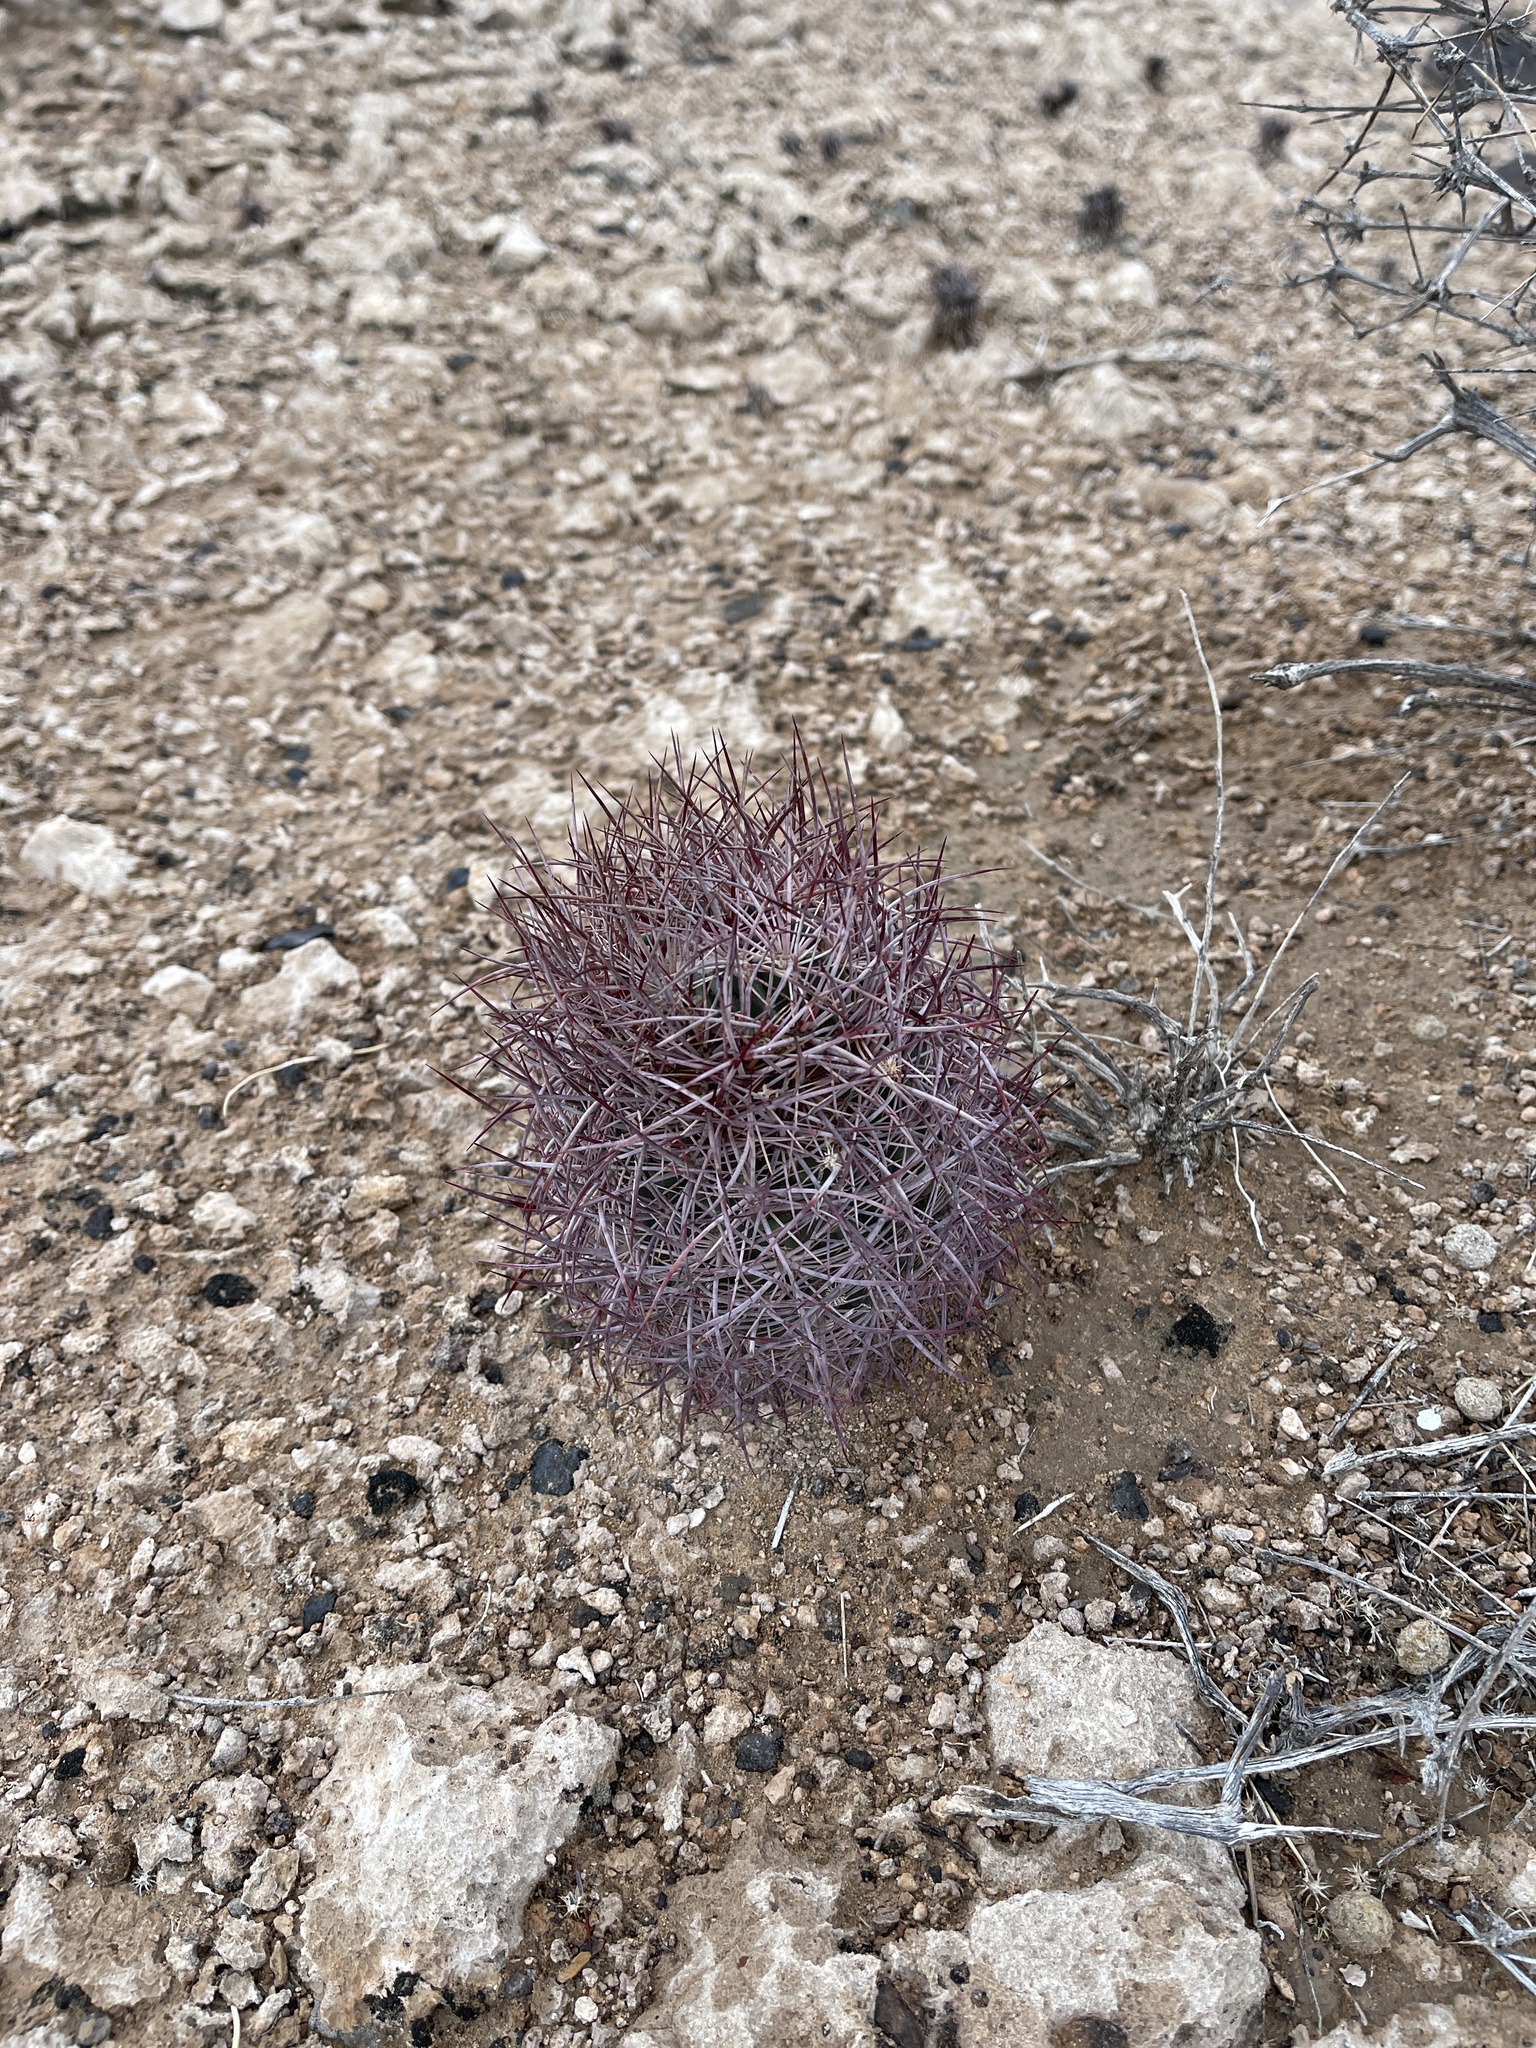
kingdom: Plantae
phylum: Tracheophyta
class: Magnoliopsida
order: Caryophyllales
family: Cactaceae
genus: Sclerocactus
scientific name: Sclerocactus johnsonii
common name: Eight-spine fishhook cactus
